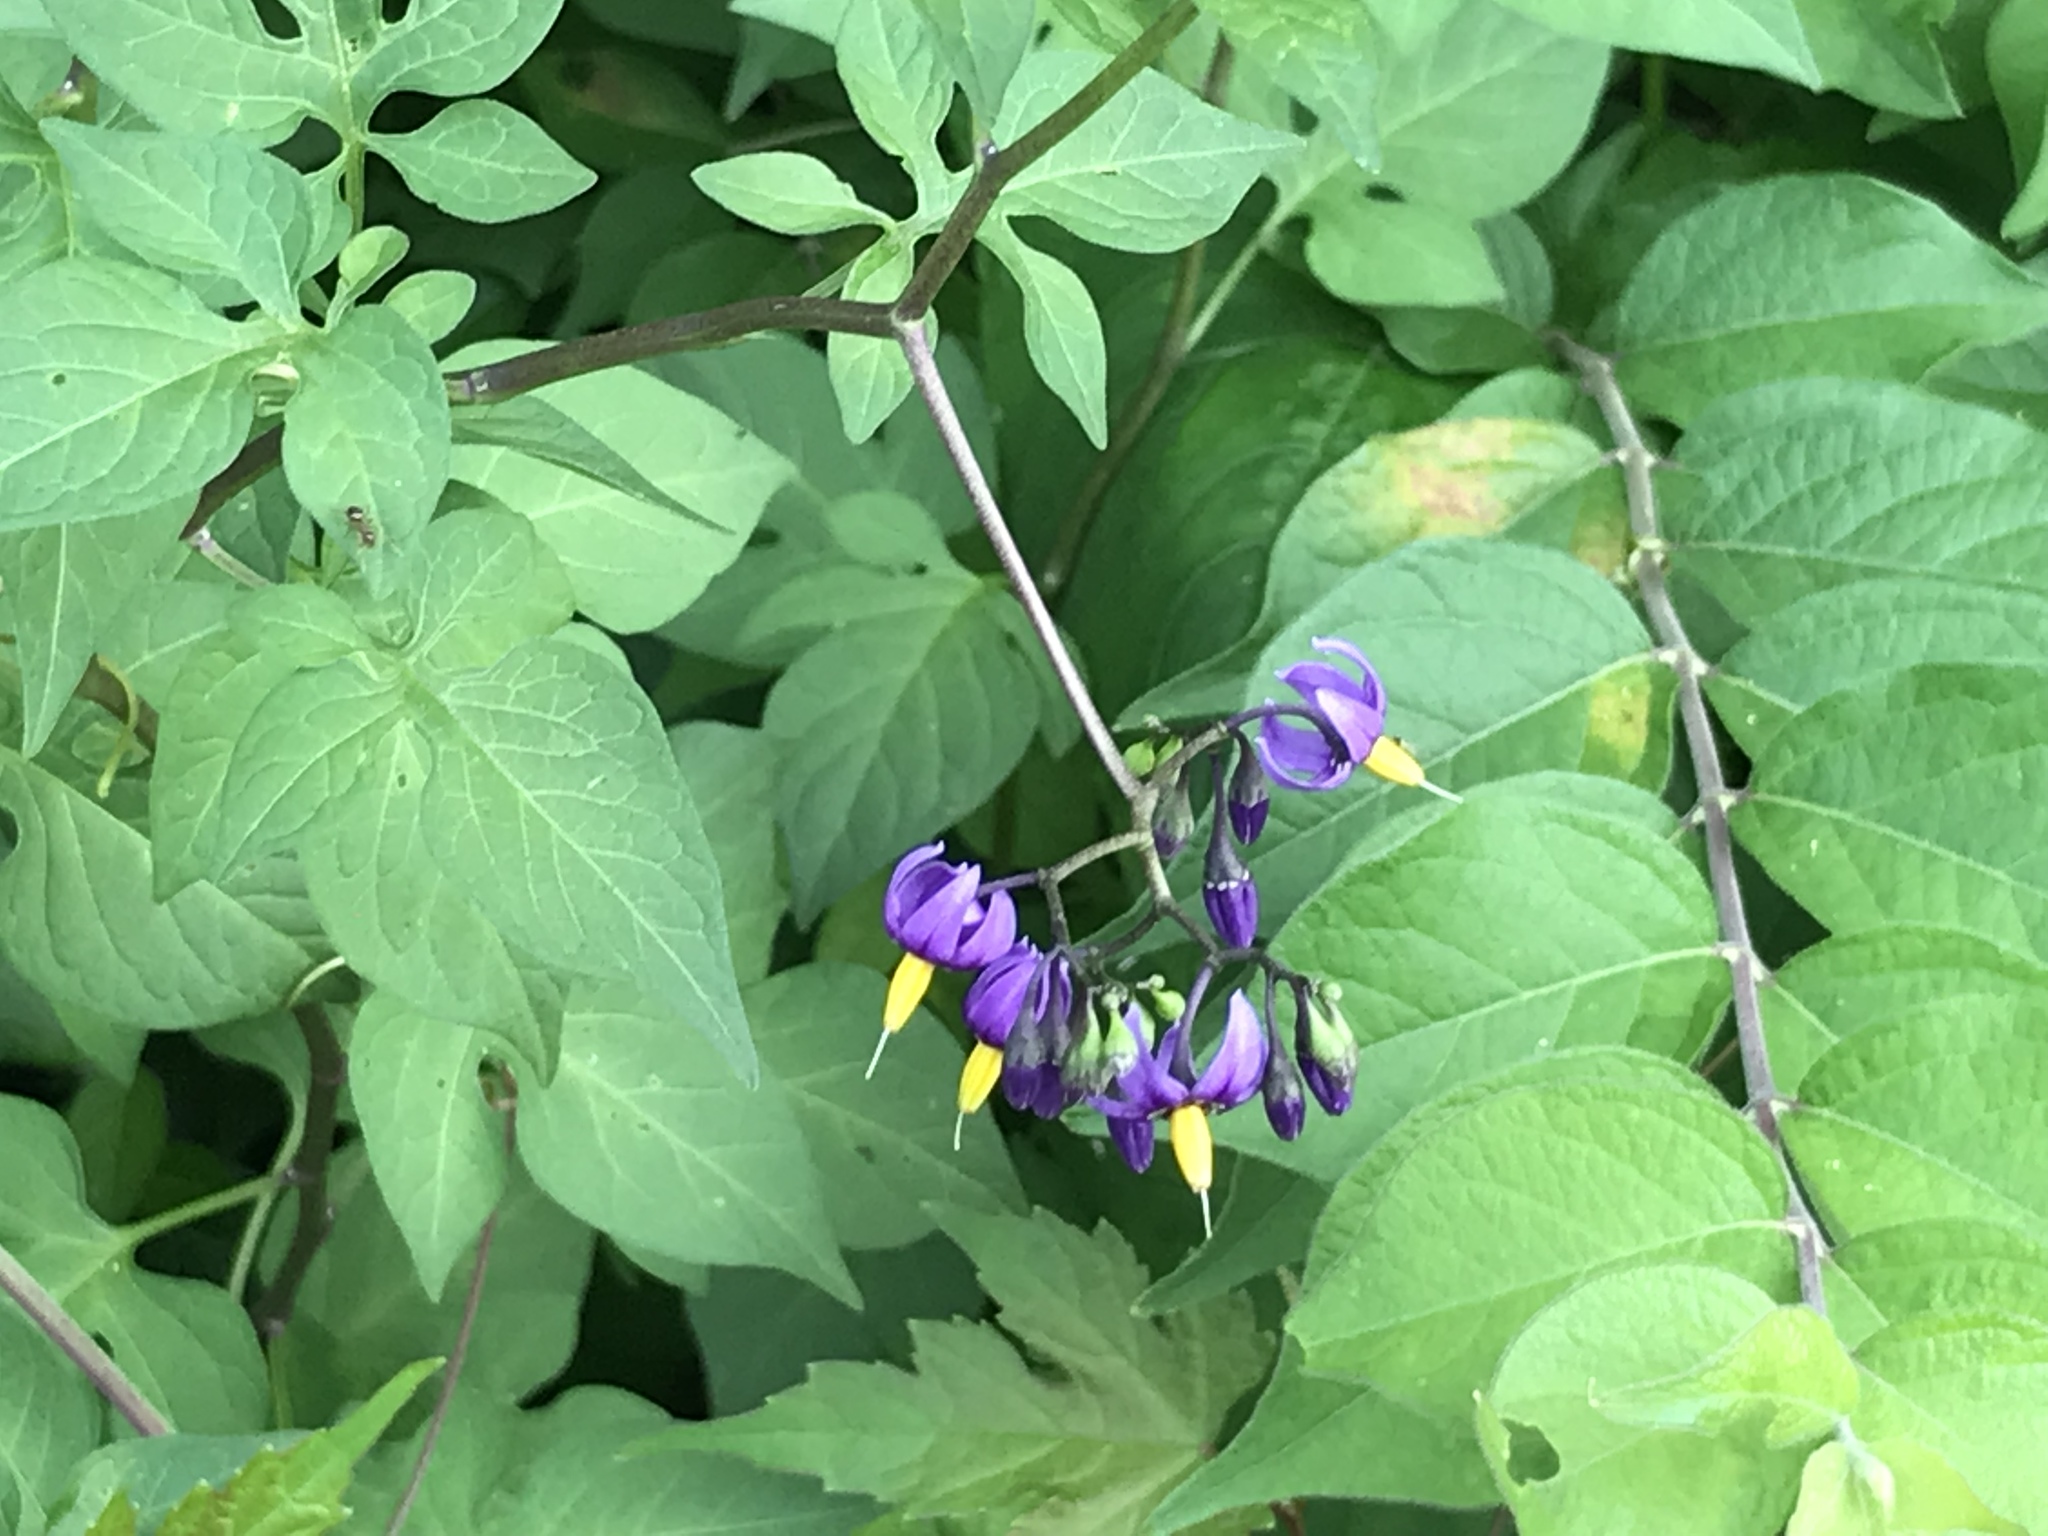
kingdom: Plantae
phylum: Tracheophyta
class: Magnoliopsida
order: Solanales
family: Solanaceae
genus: Solanum
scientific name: Solanum dulcamara
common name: Climbing nightshade
